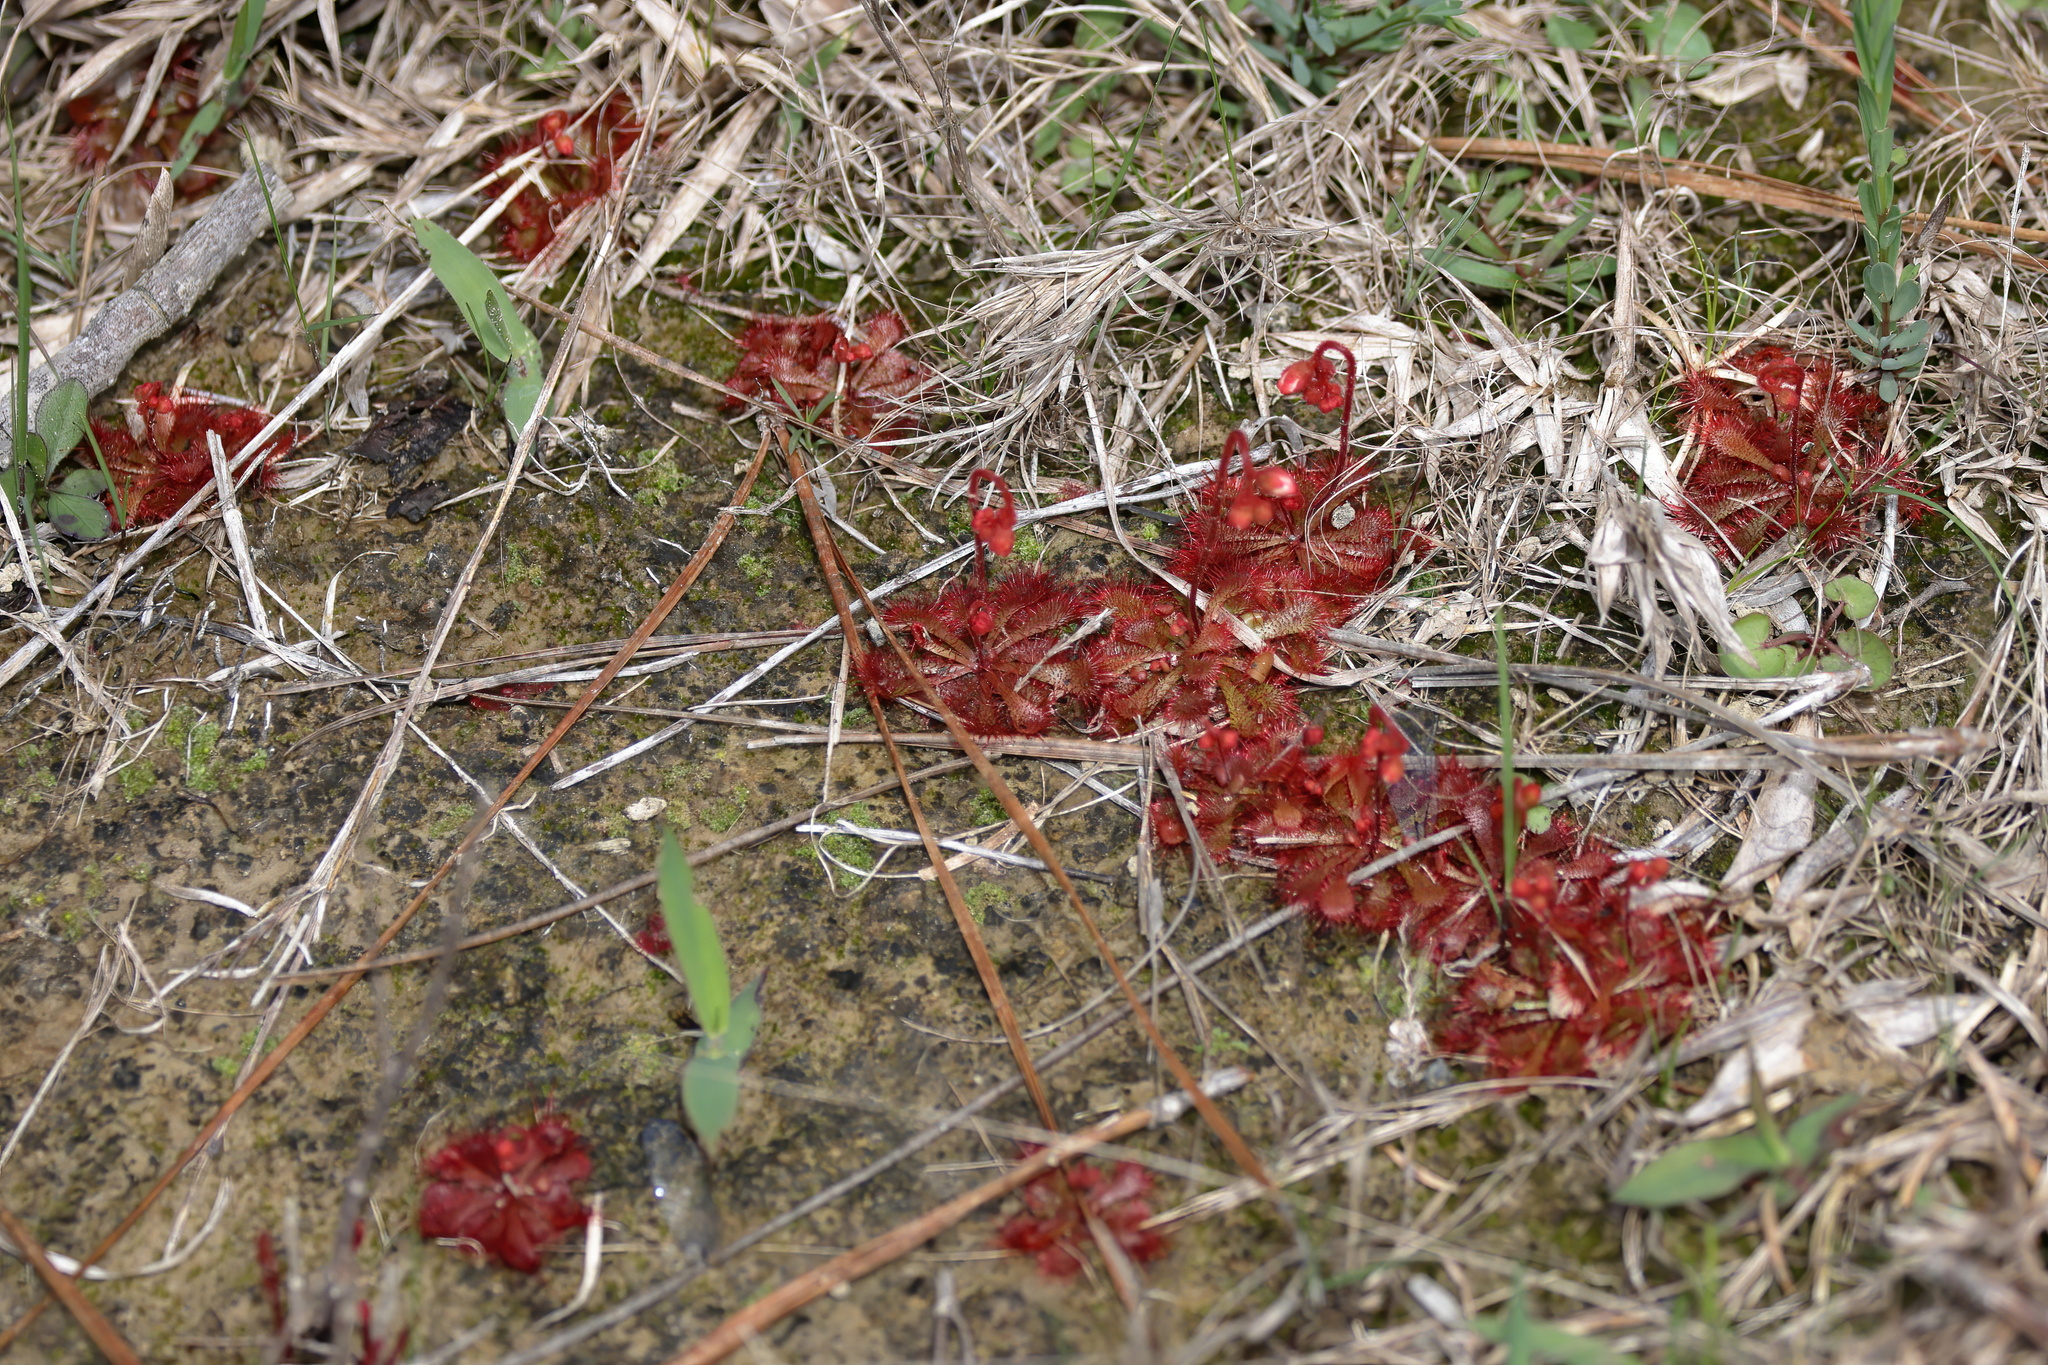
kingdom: Plantae
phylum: Tracheophyta
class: Magnoliopsida
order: Caryophyllales
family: Droseraceae
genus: Drosera
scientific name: Drosera brevifolia
